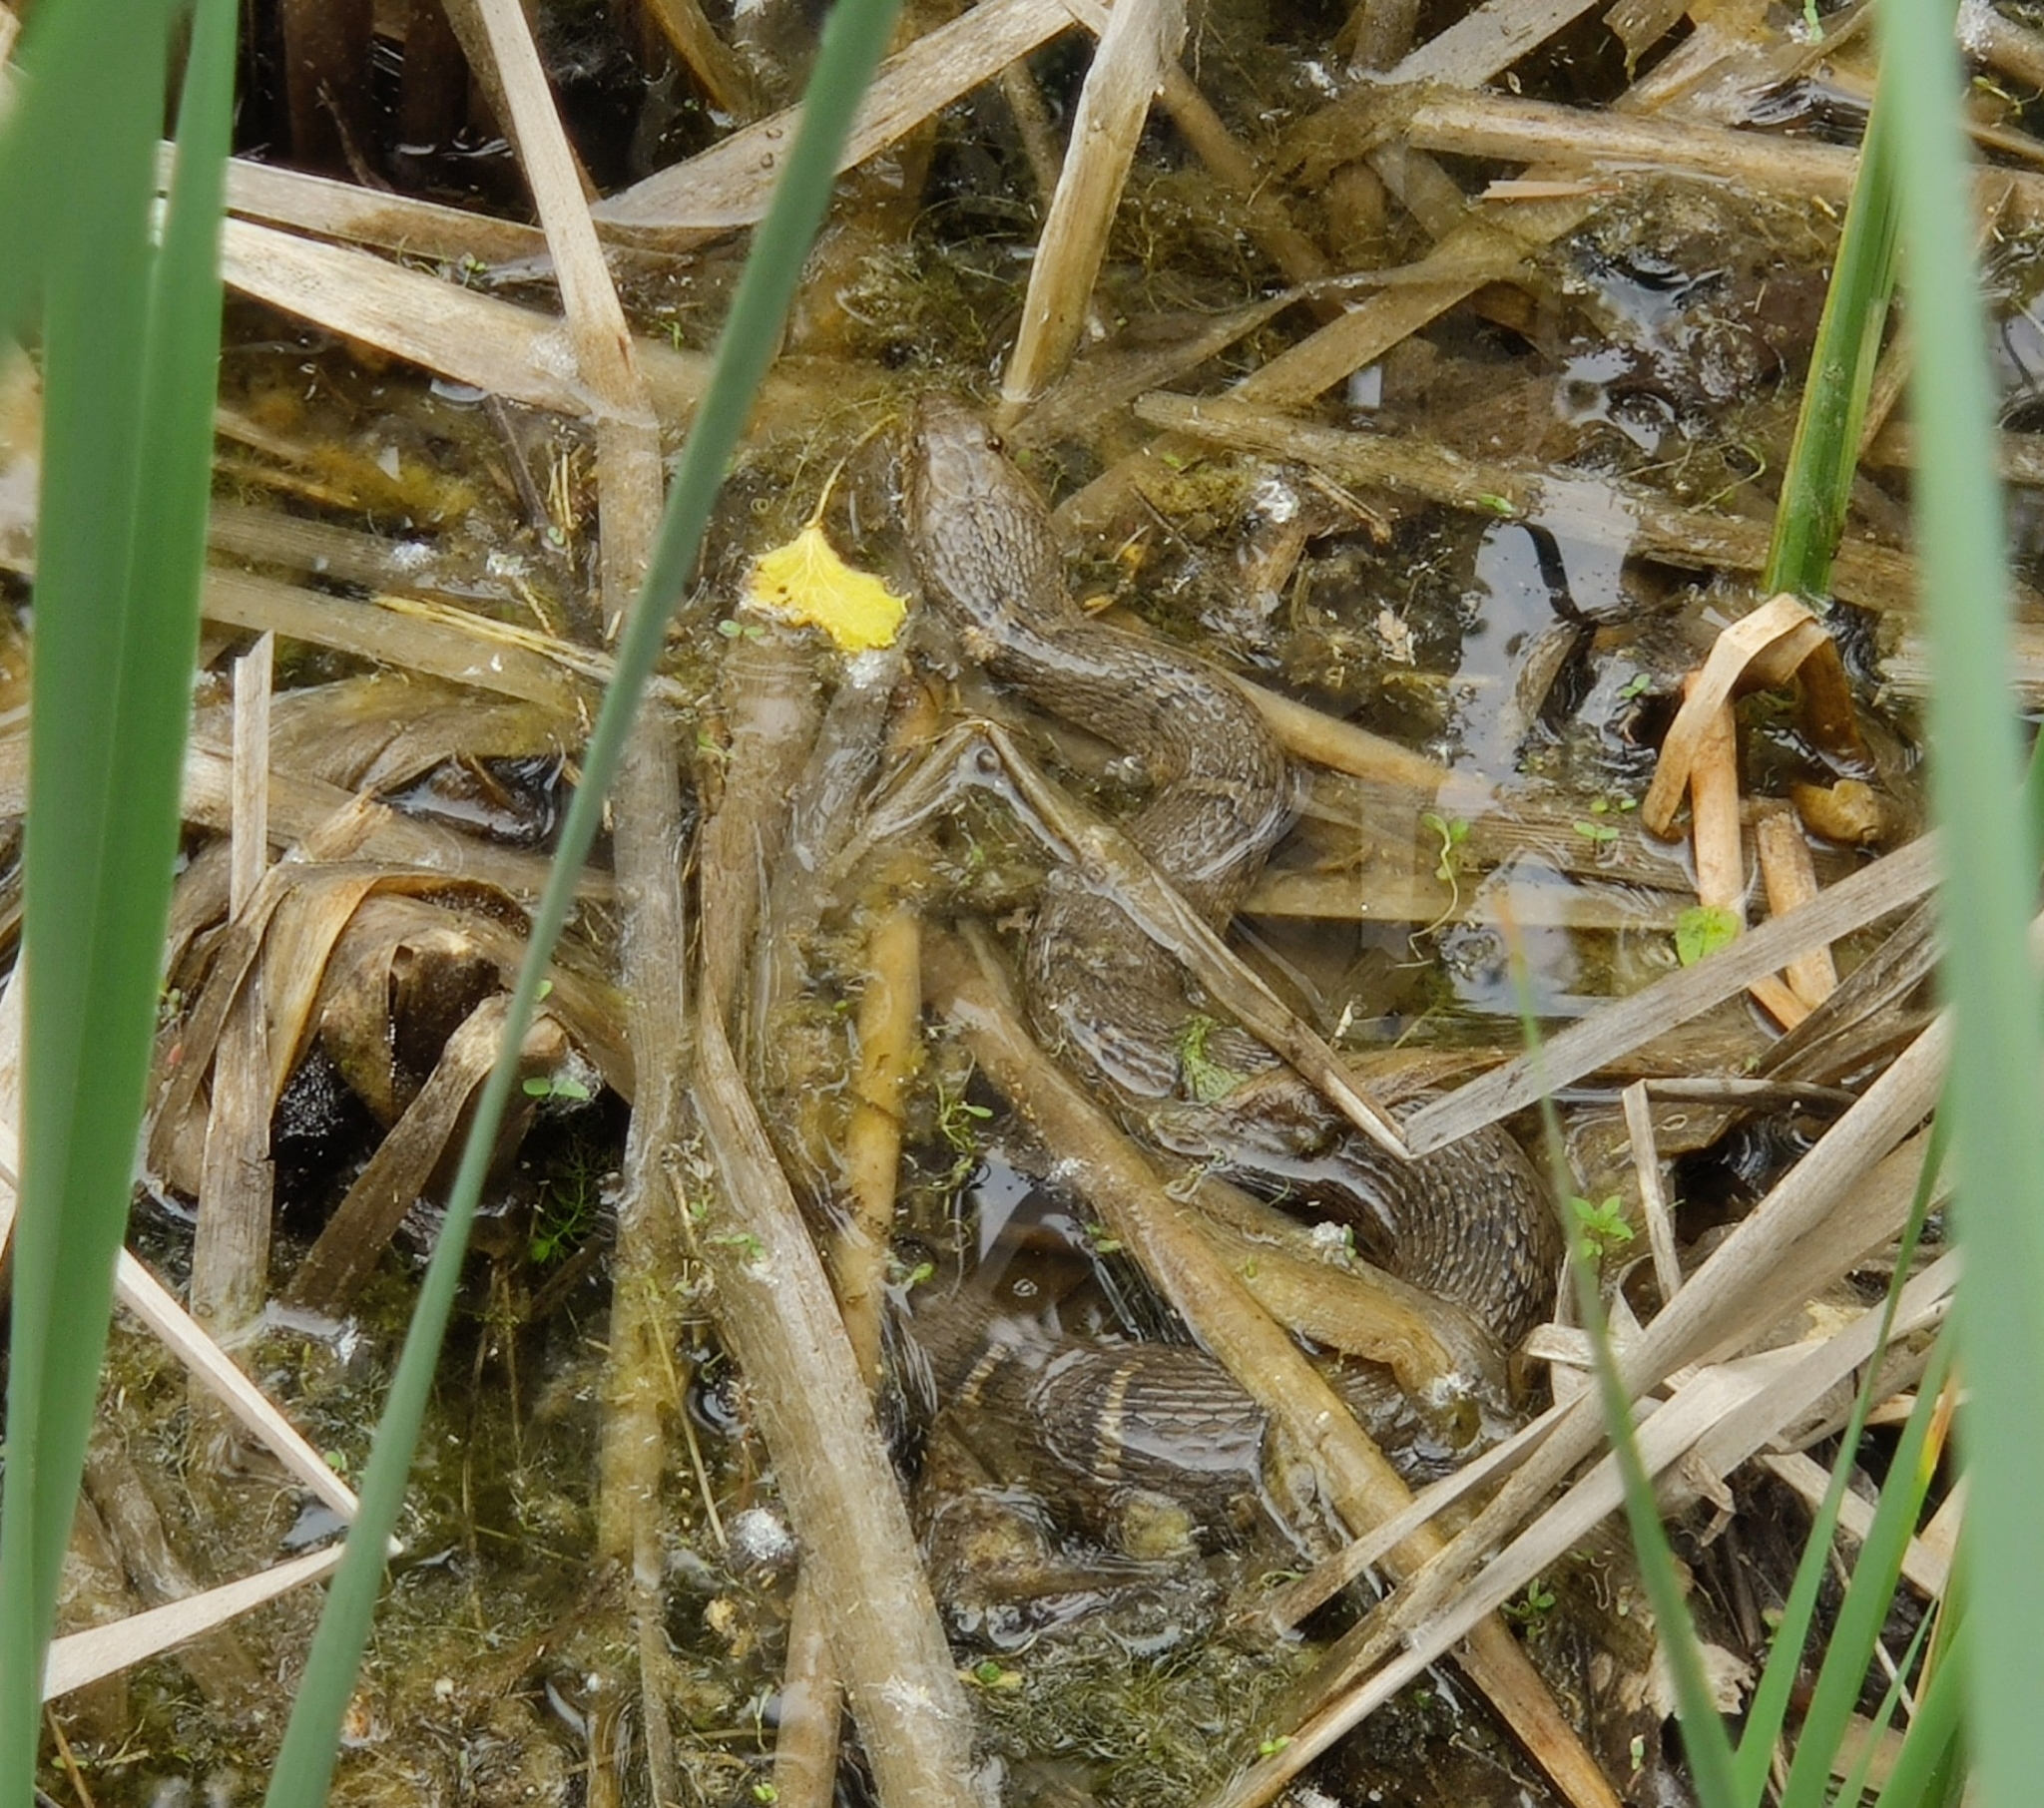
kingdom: Animalia
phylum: Chordata
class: Squamata
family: Colubridae
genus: Nerodia
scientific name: Nerodia sipedon
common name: Northern water snake
